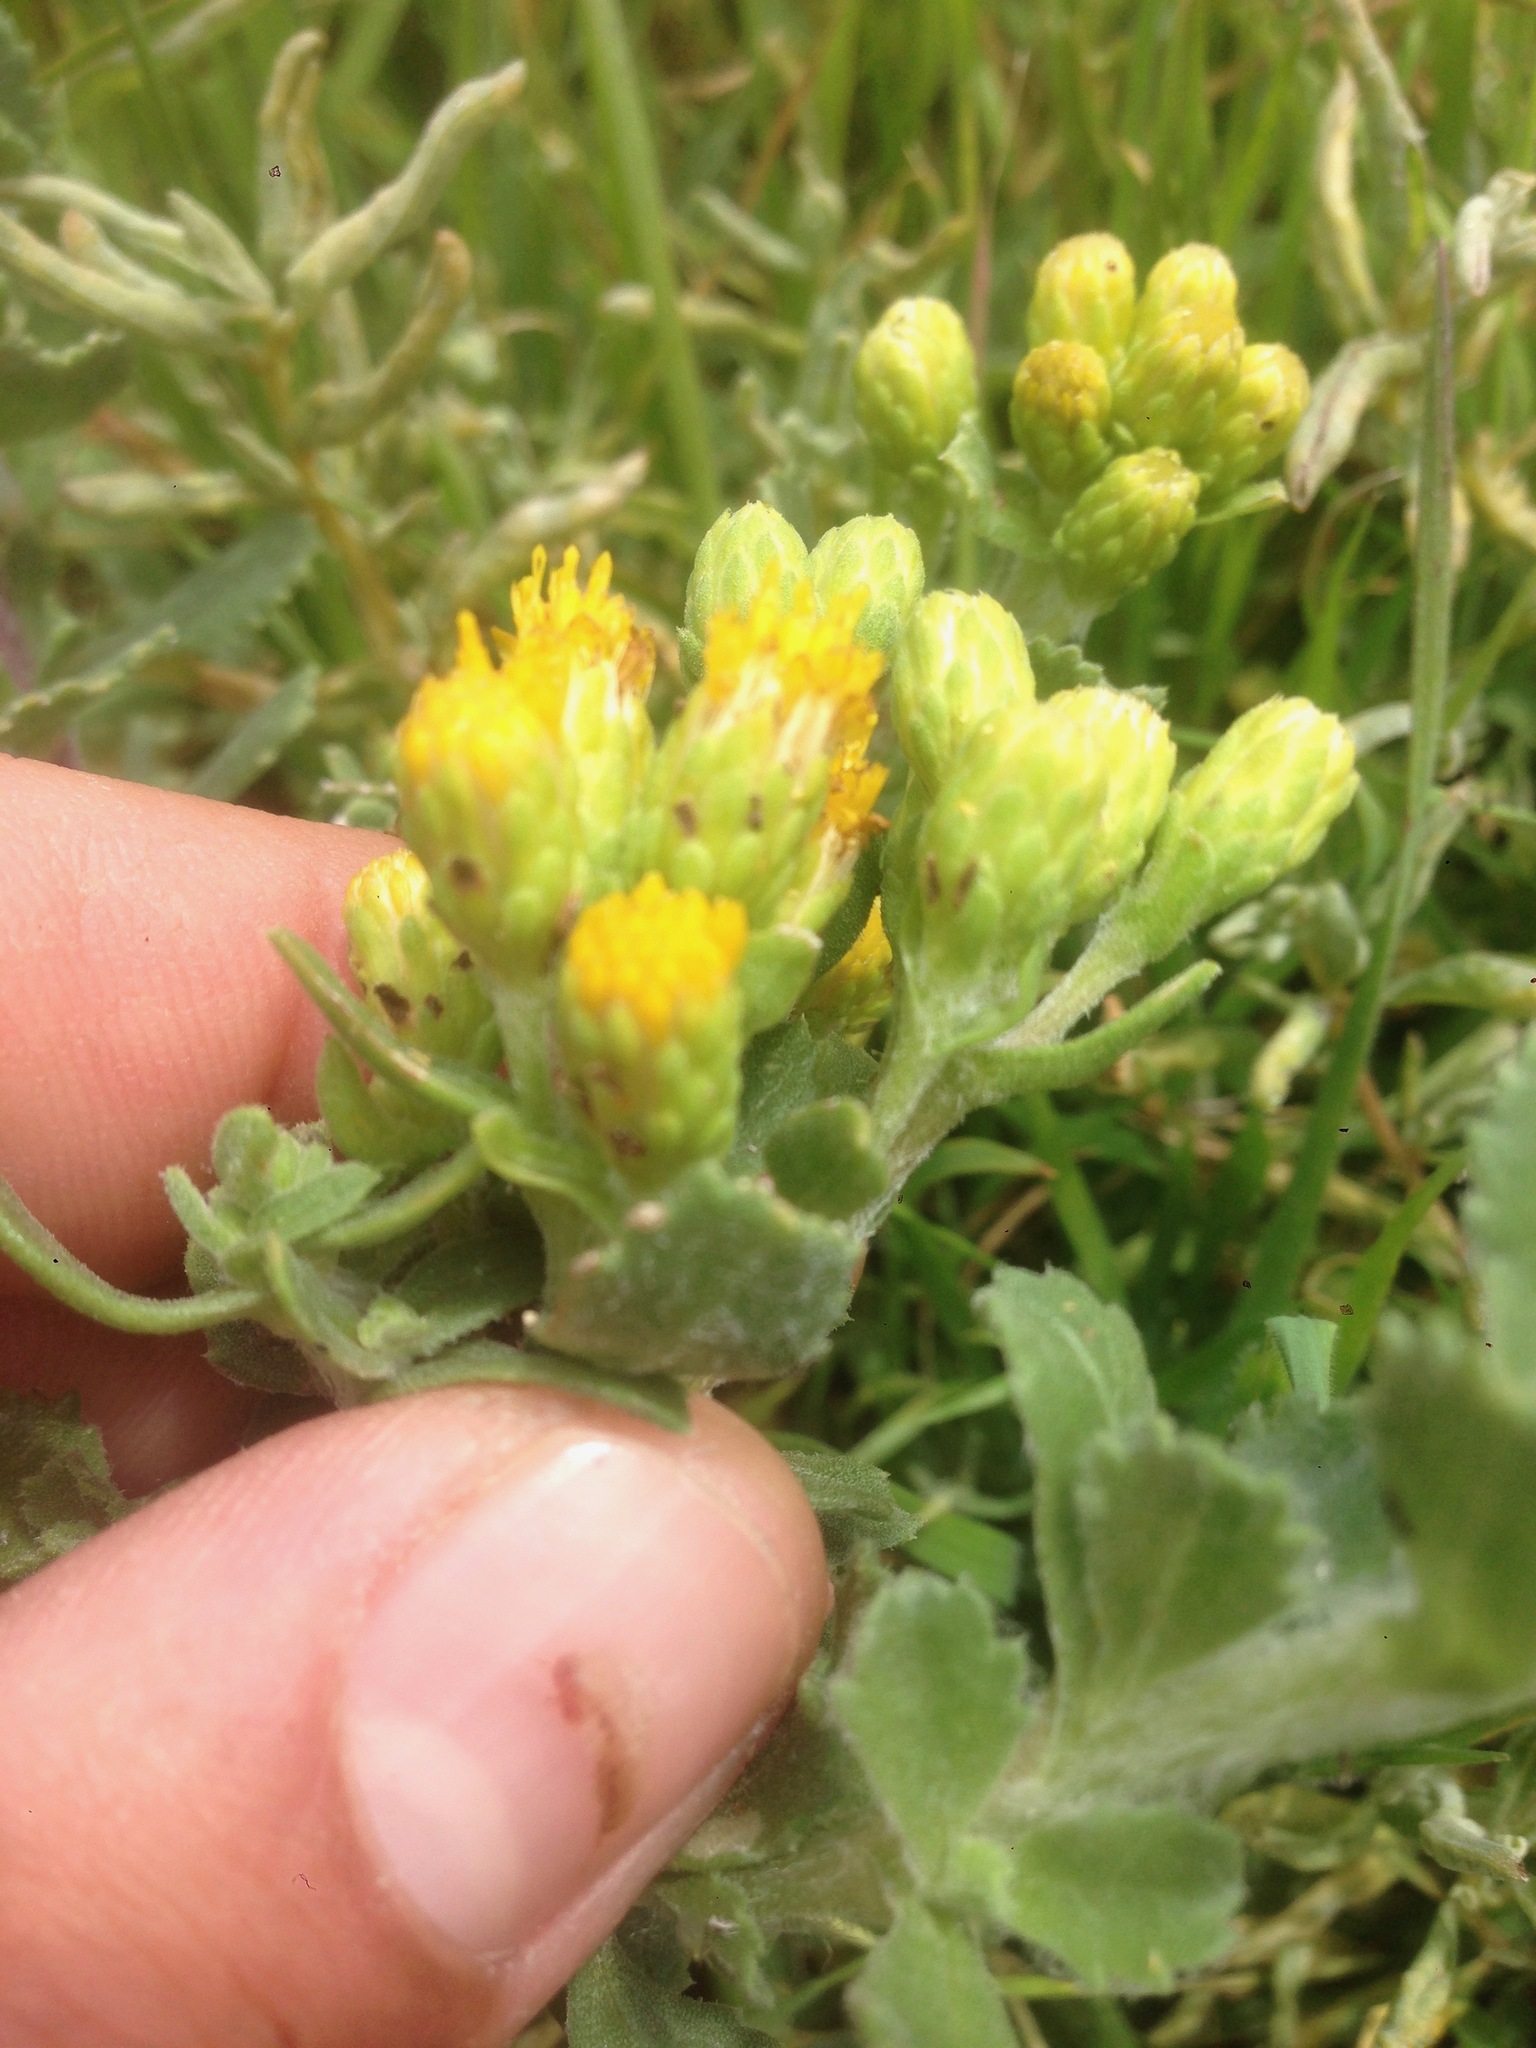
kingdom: Plantae
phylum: Tracheophyta
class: Magnoliopsida
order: Asterales
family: Asteraceae
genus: Isocoma
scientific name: Isocoma menziesii
